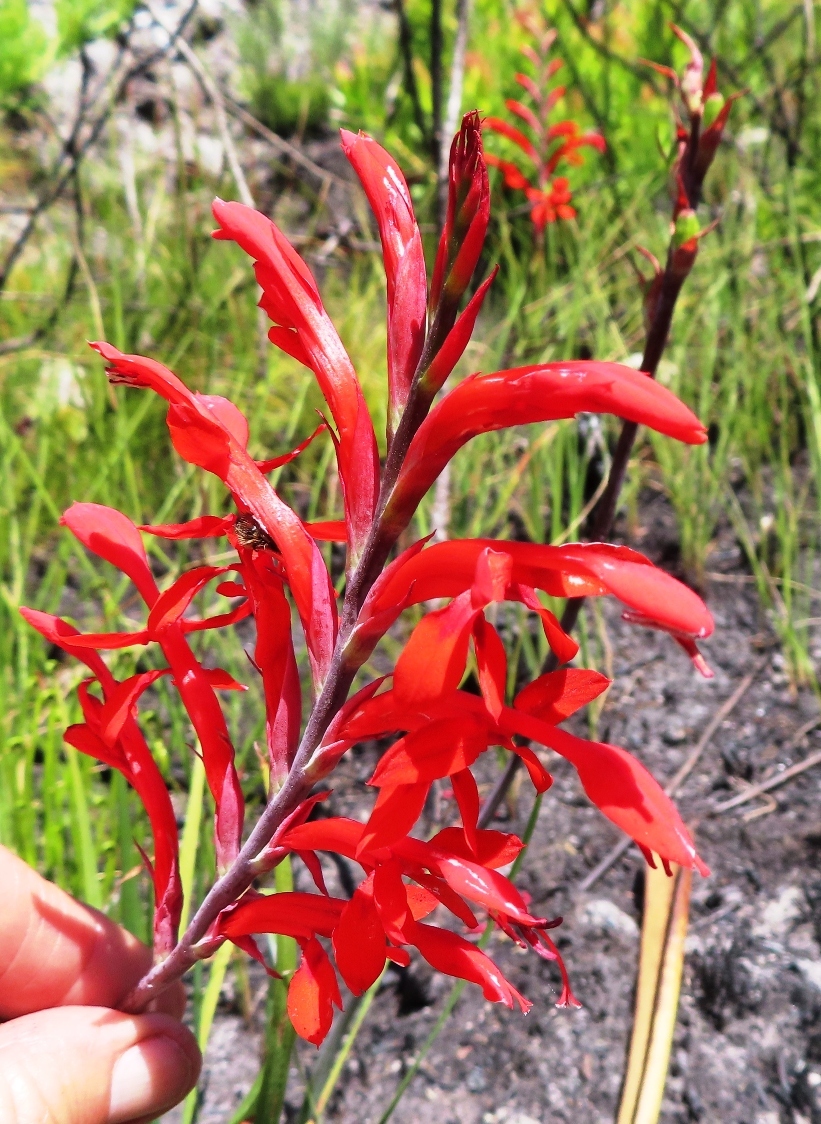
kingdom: Plantae
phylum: Tracheophyta
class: Liliopsida
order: Asparagales
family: Iridaceae
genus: Tritoniopsis
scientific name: Tritoniopsis caffra
